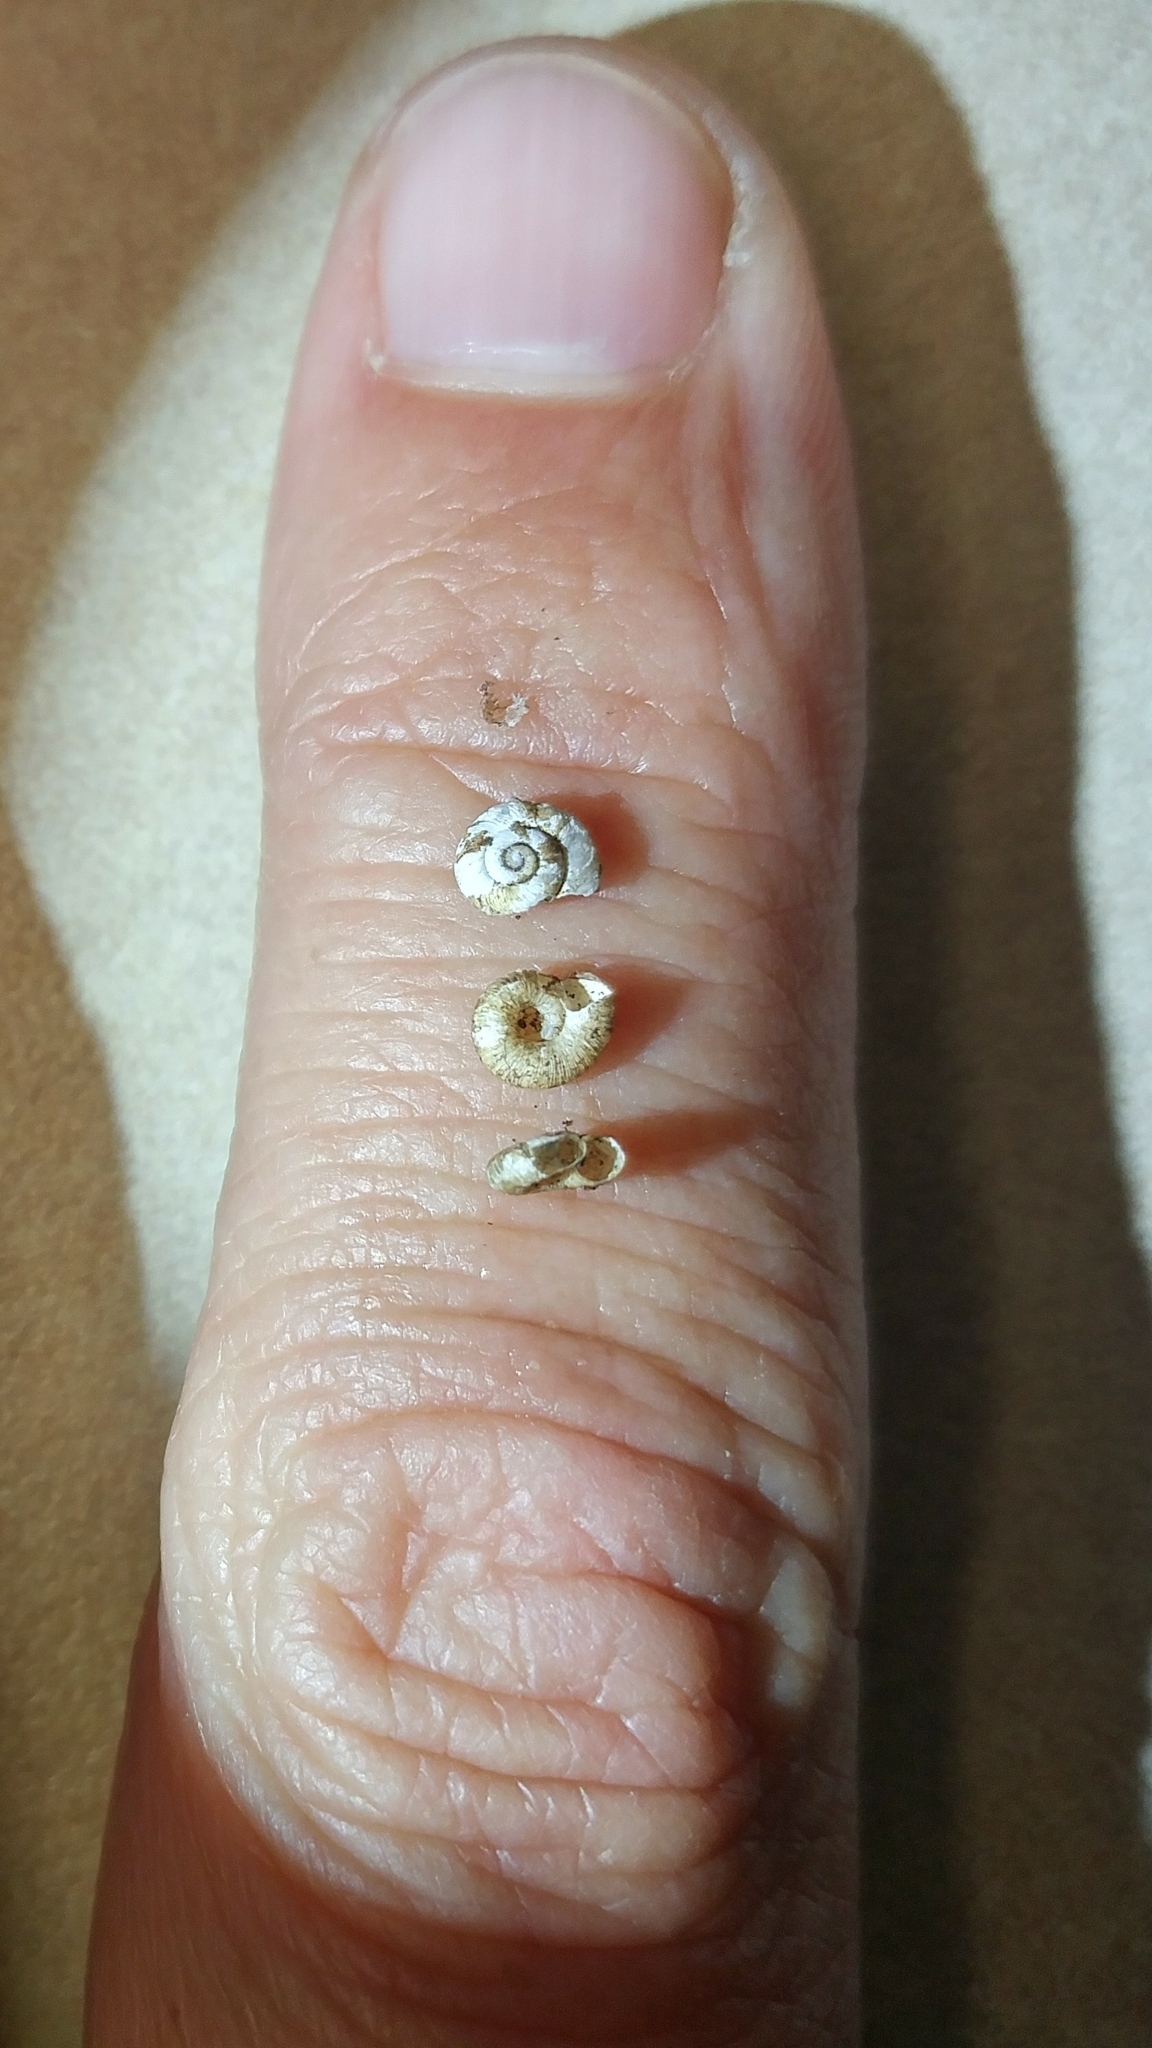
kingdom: Animalia
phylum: Mollusca
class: Gastropoda
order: Stylommatophora
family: Haplotrematidae
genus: Haplotrema
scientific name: Haplotrema duranti
